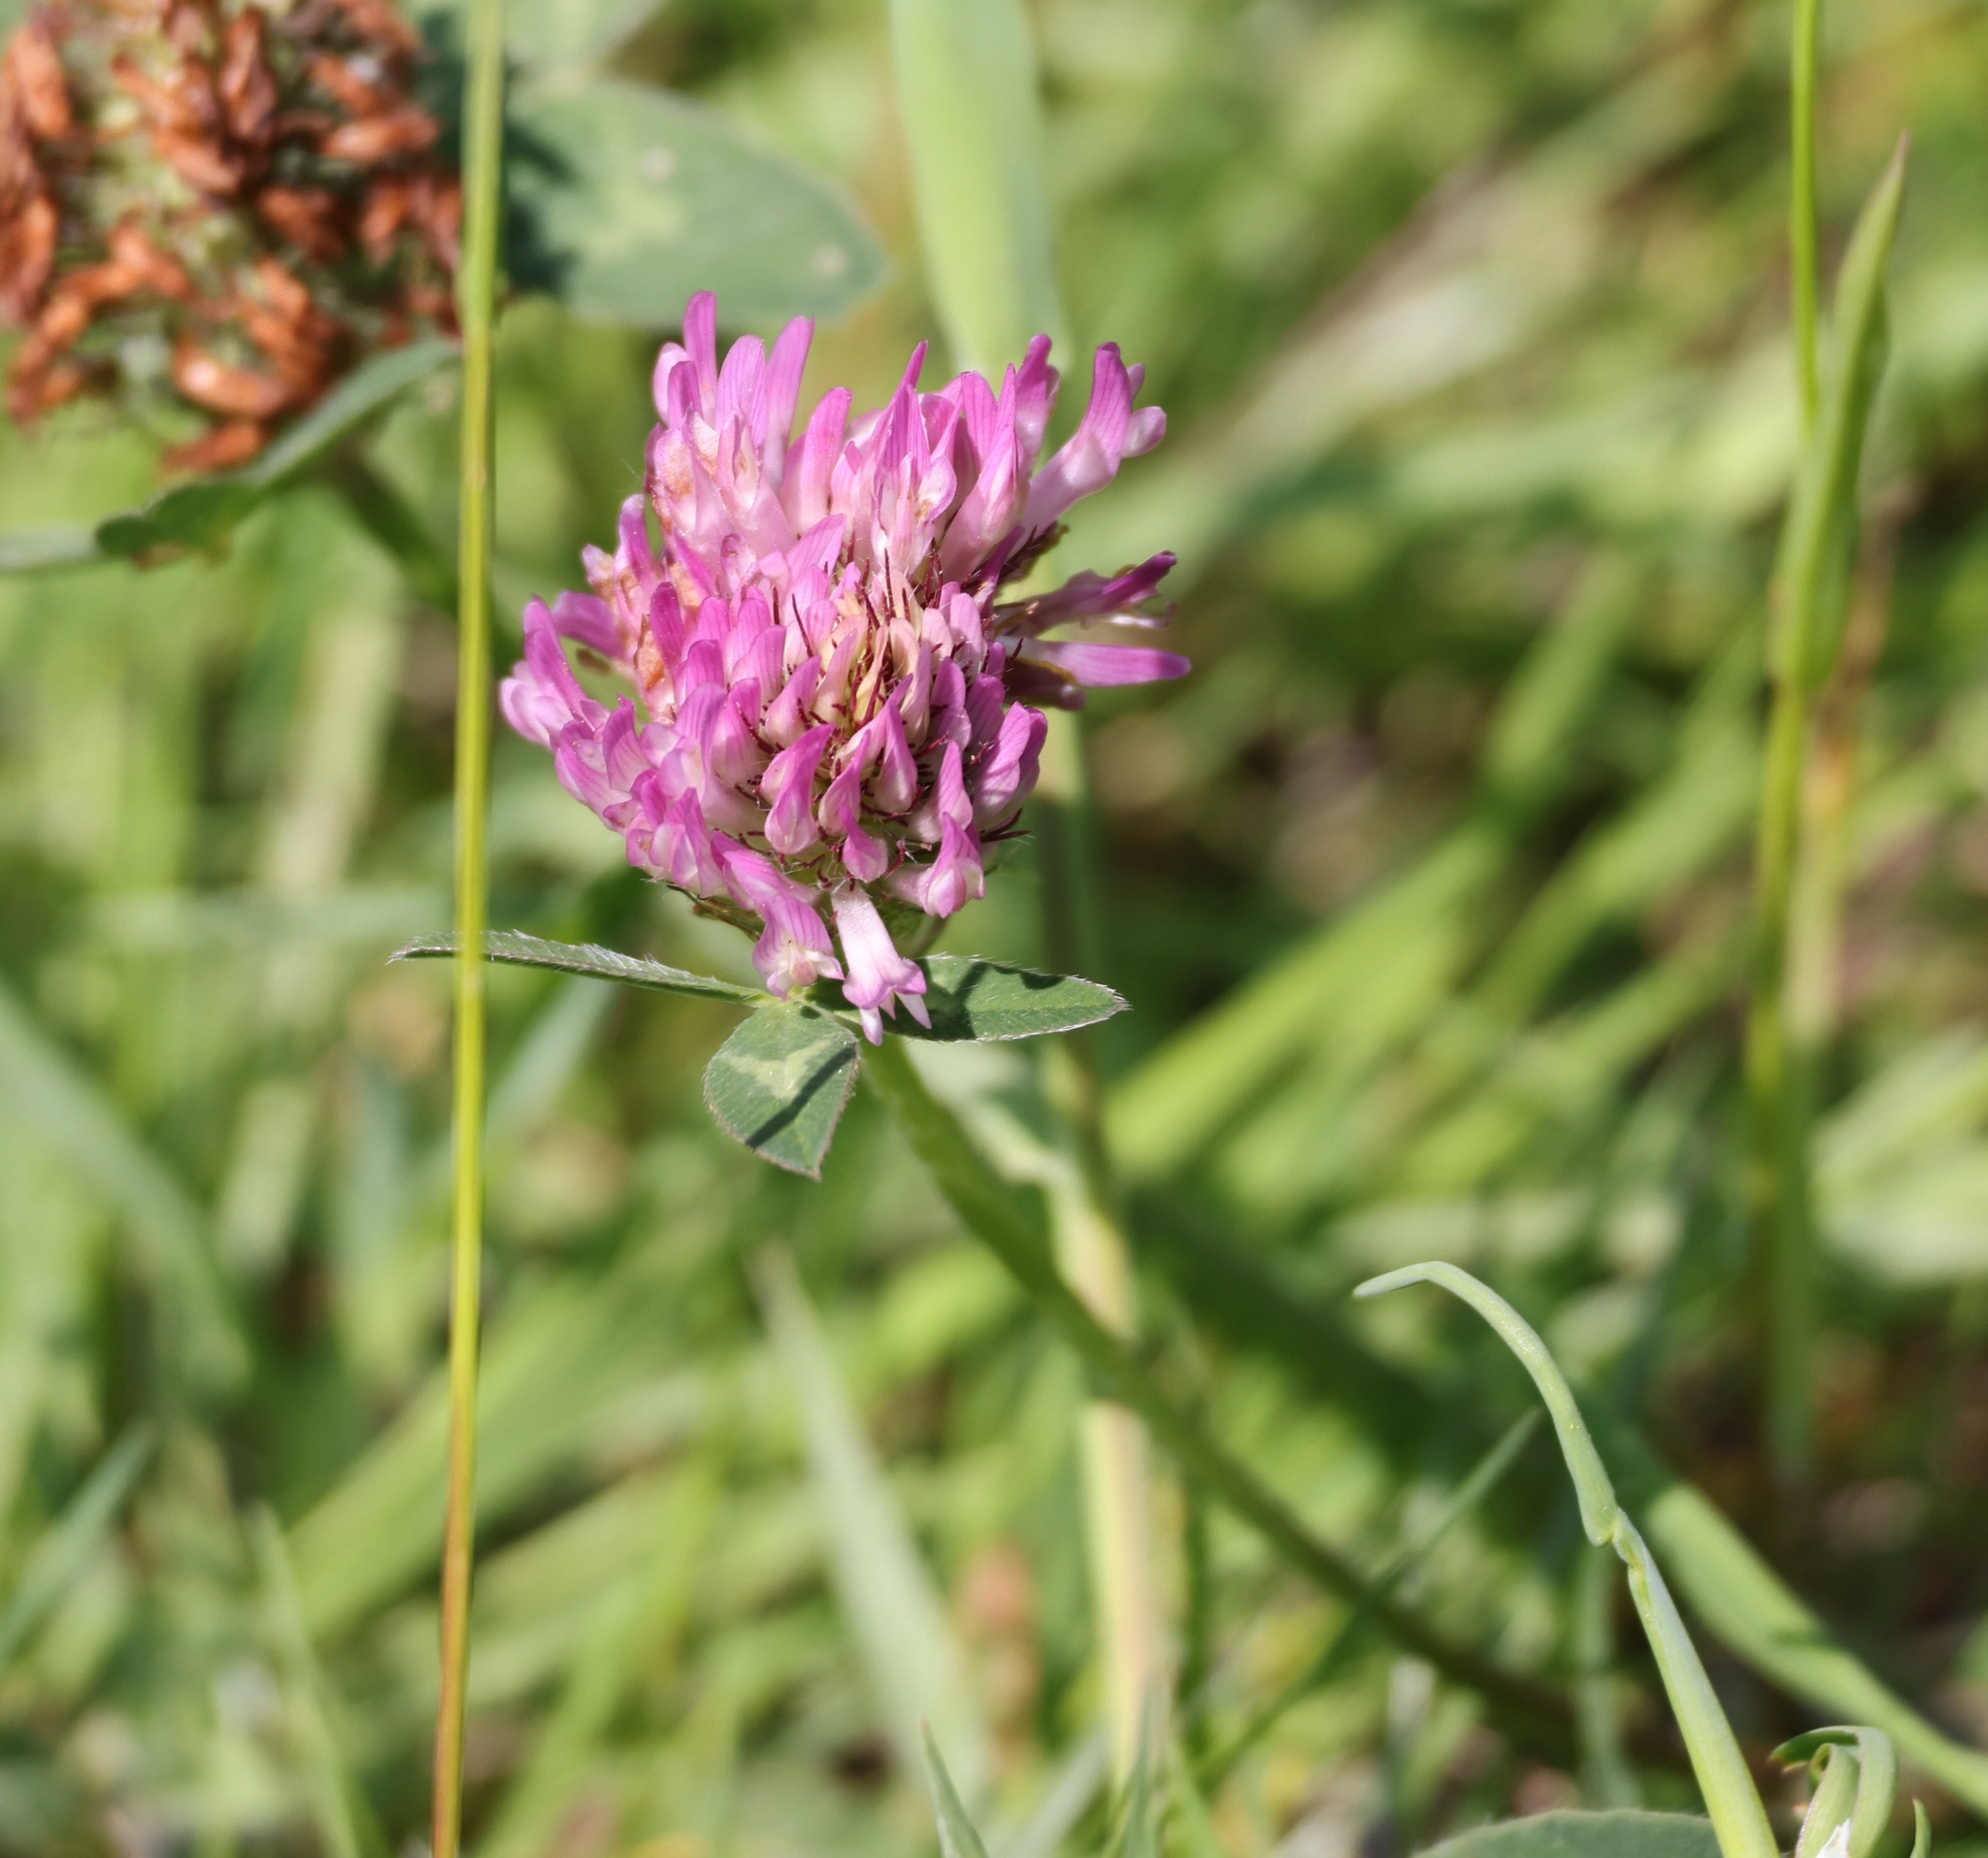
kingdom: Plantae
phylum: Tracheophyta
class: Magnoliopsida
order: Fabales
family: Fabaceae
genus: Trifolium
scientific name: Trifolium pratense
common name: Red clover
